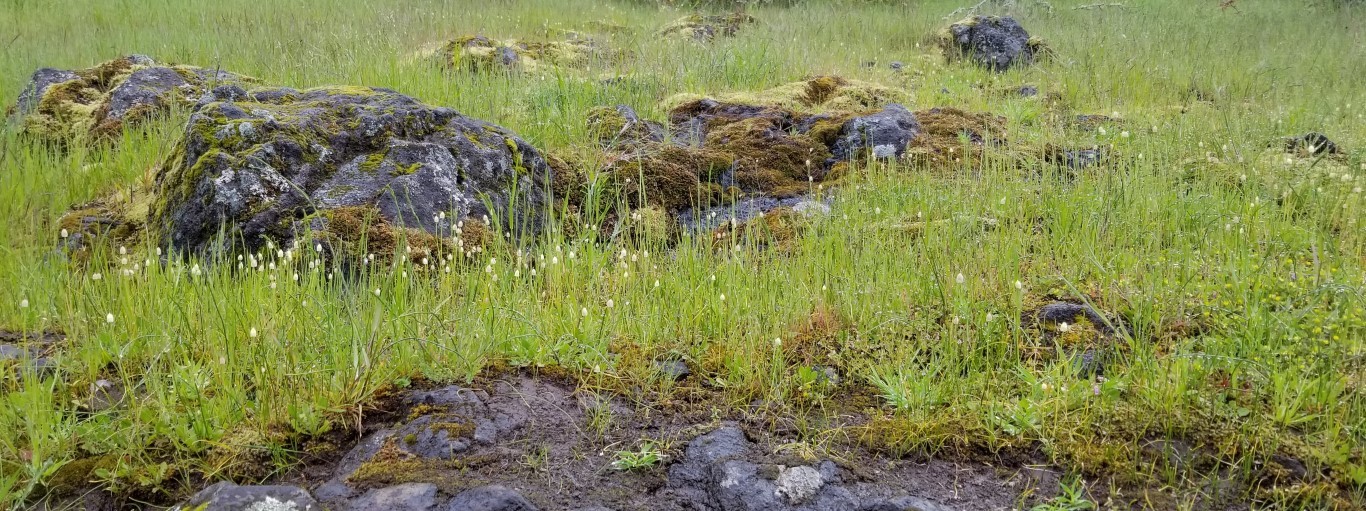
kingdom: Plantae
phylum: Tracheophyta
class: Liliopsida
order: Asparagales
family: Amaryllidaceae
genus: Allium
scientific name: Allium amplectens
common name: Narrow-leaved onion
